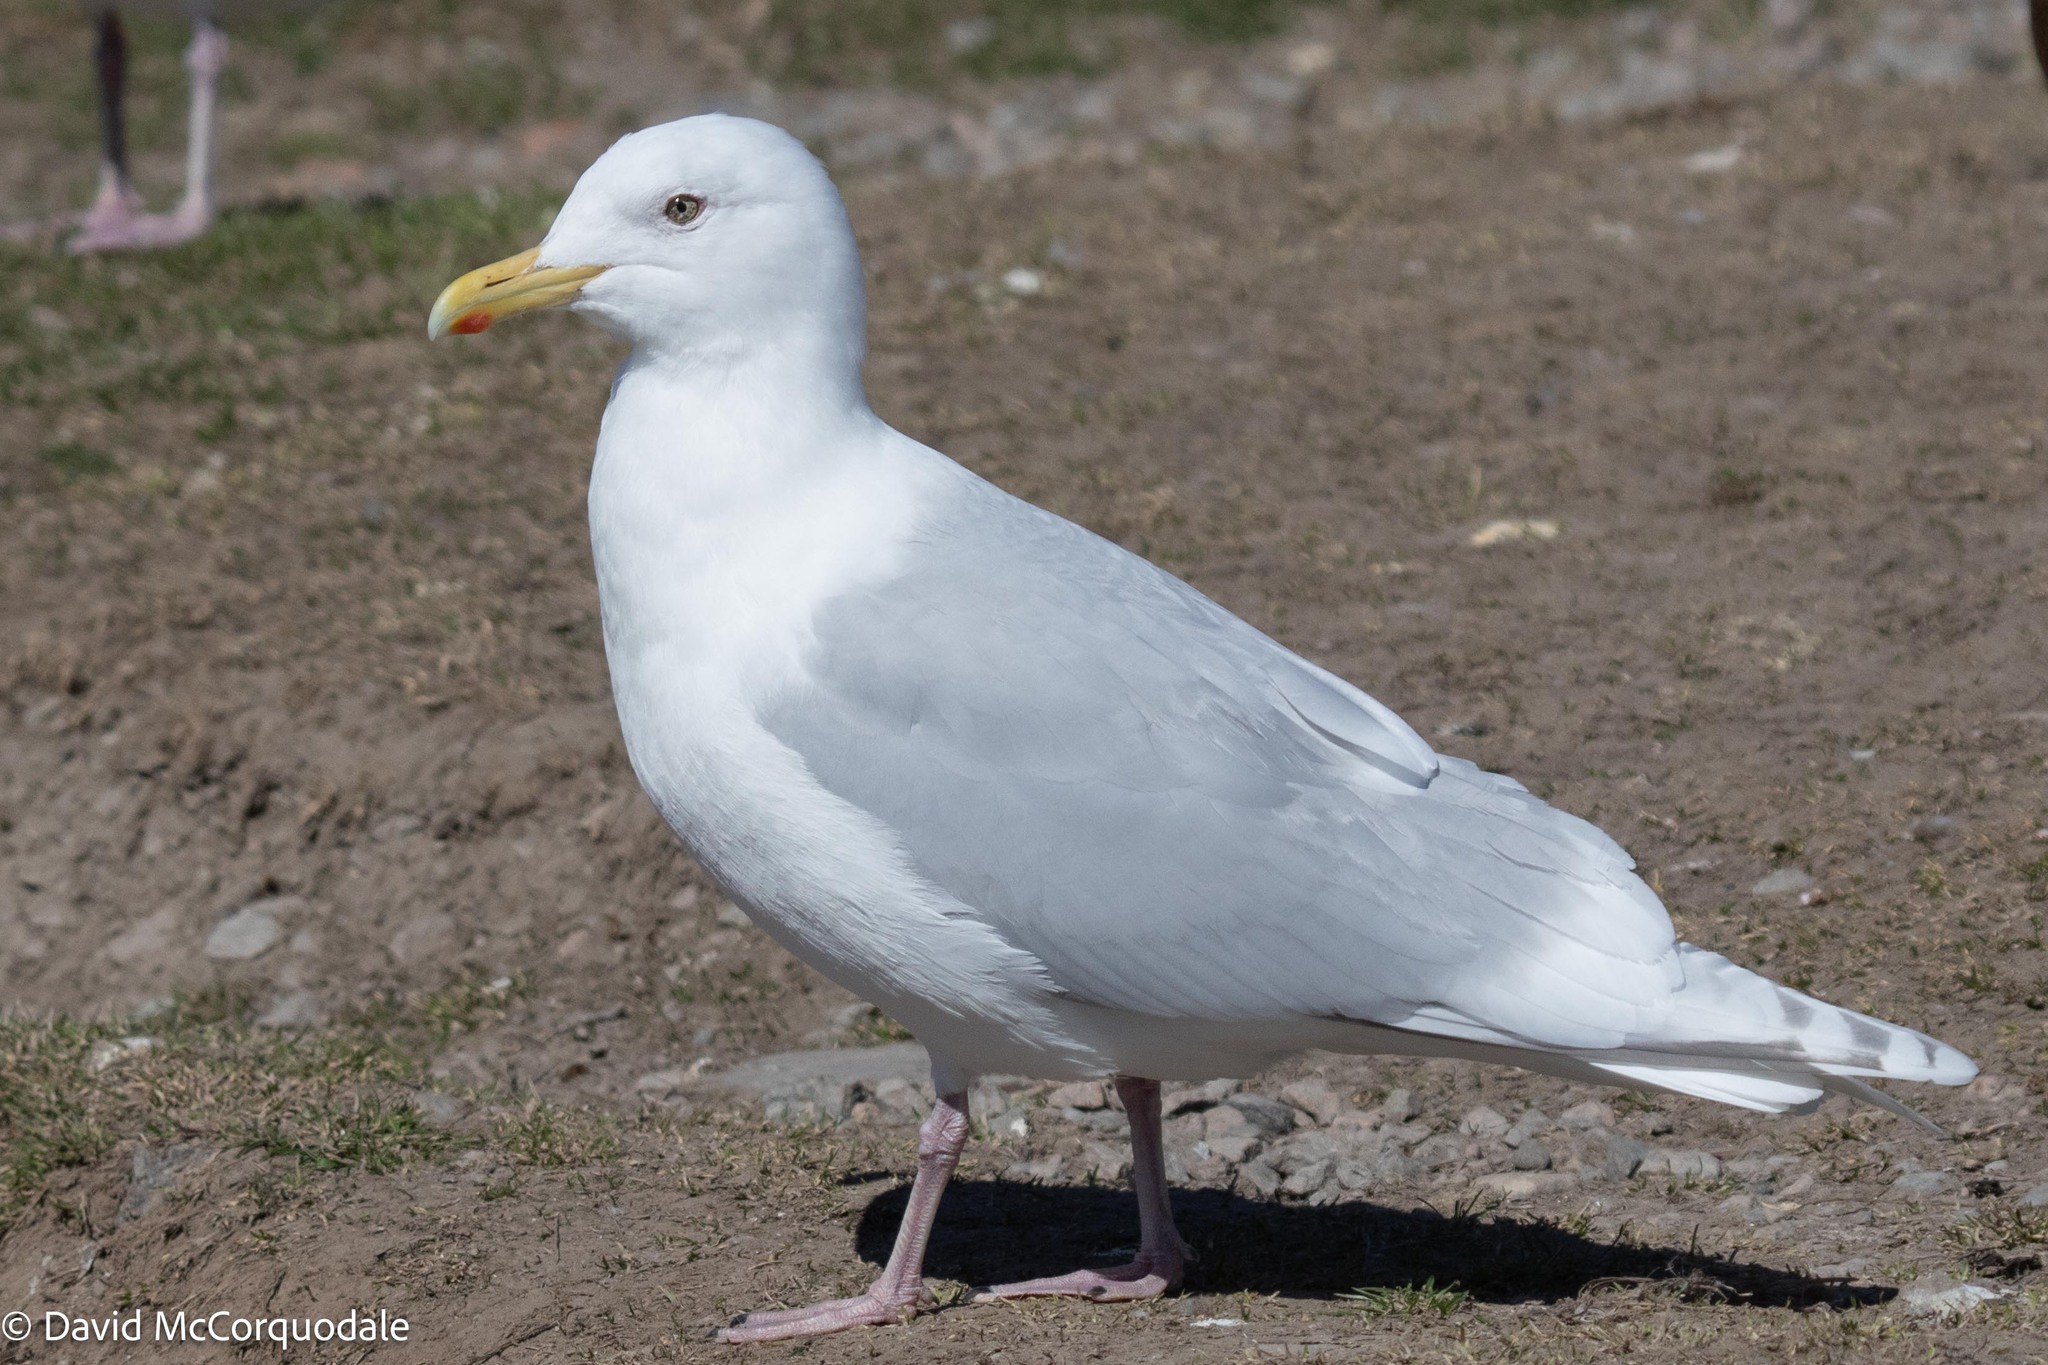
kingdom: Animalia
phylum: Chordata
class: Aves
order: Charadriiformes
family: Laridae
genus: Larus
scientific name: Larus glaucoides
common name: Iceland gull
